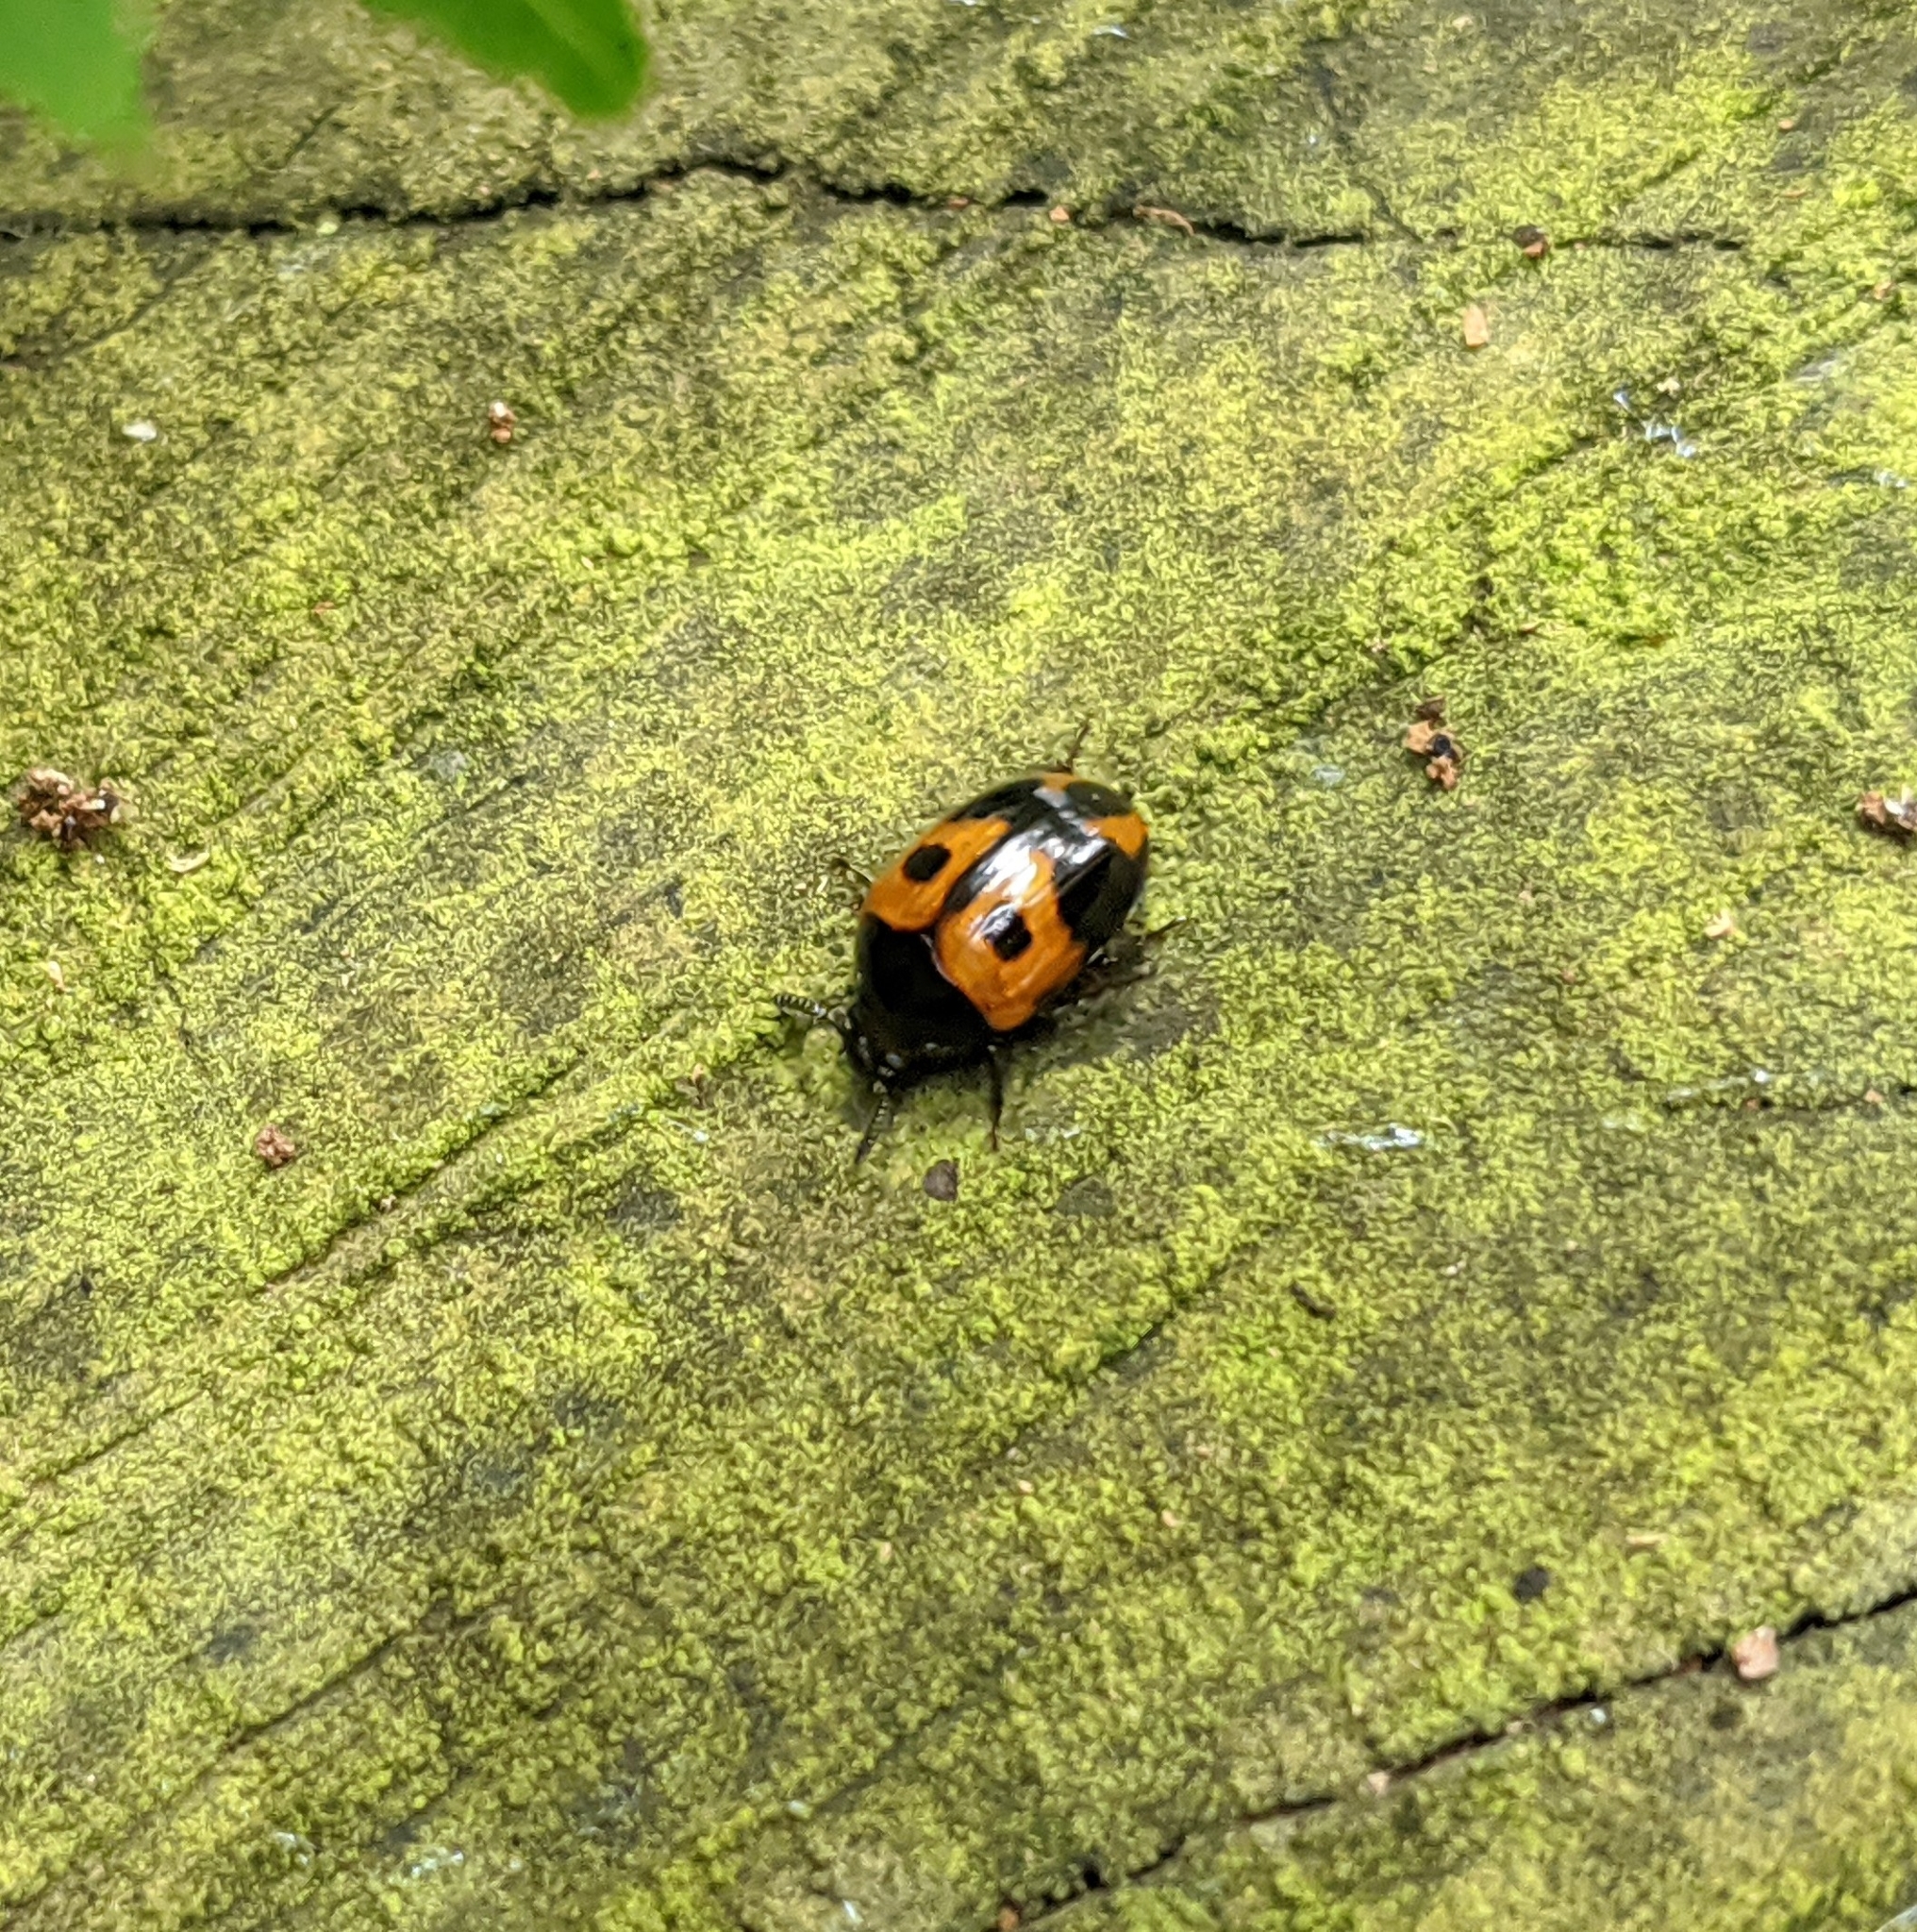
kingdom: Animalia
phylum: Arthropoda
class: Insecta
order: Coleoptera
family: Tenebrionidae
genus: Diaperis
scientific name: Diaperis maculata
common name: Darkling beetle
